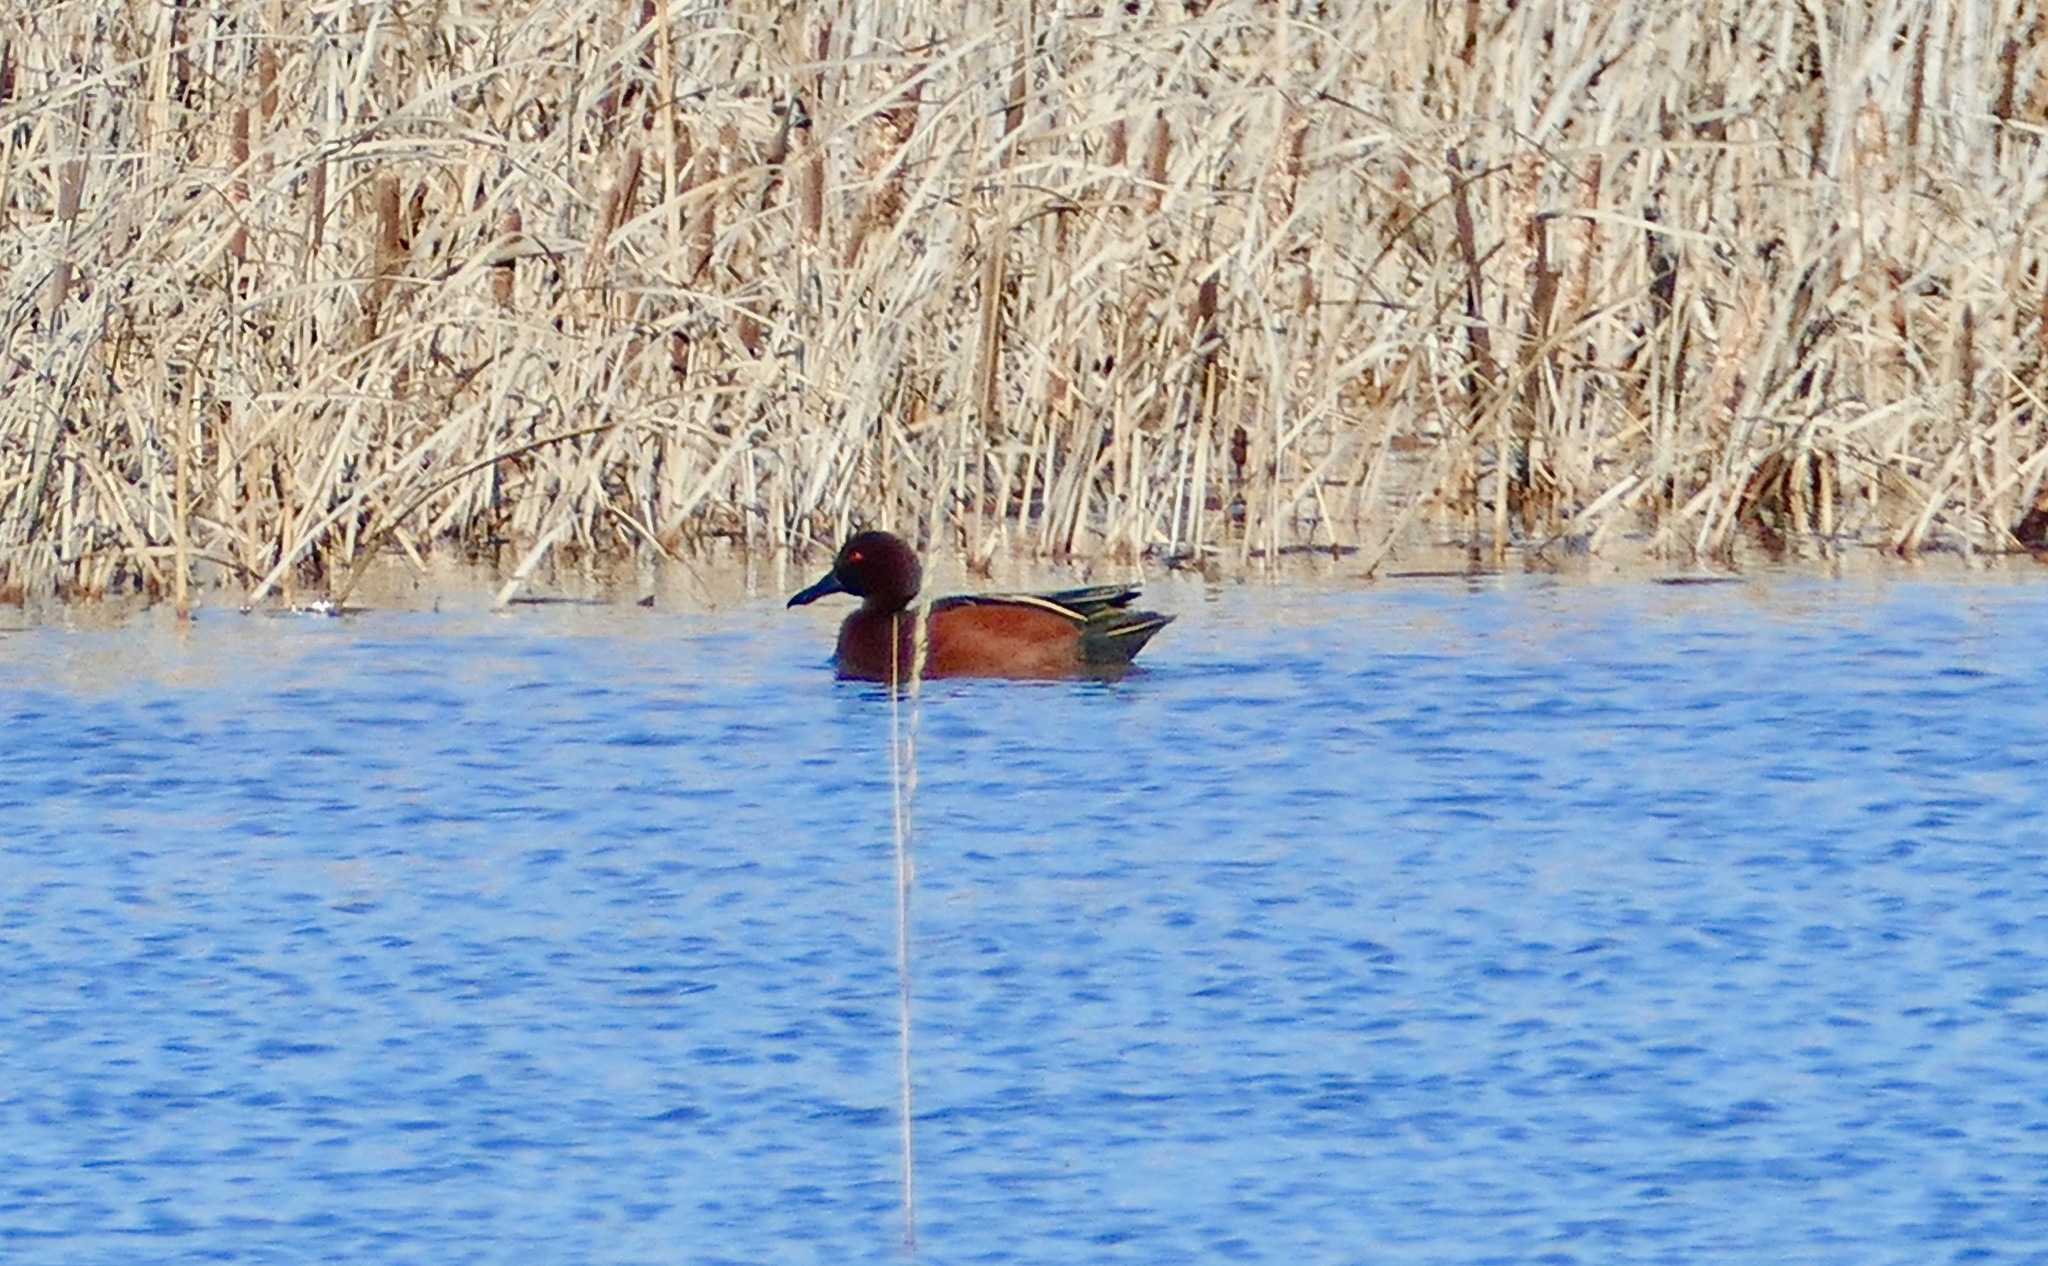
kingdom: Animalia
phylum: Chordata
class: Aves
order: Anseriformes
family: Anatidae
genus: Spatula
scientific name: Spatula cyanoptera
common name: Cinnamon teal
